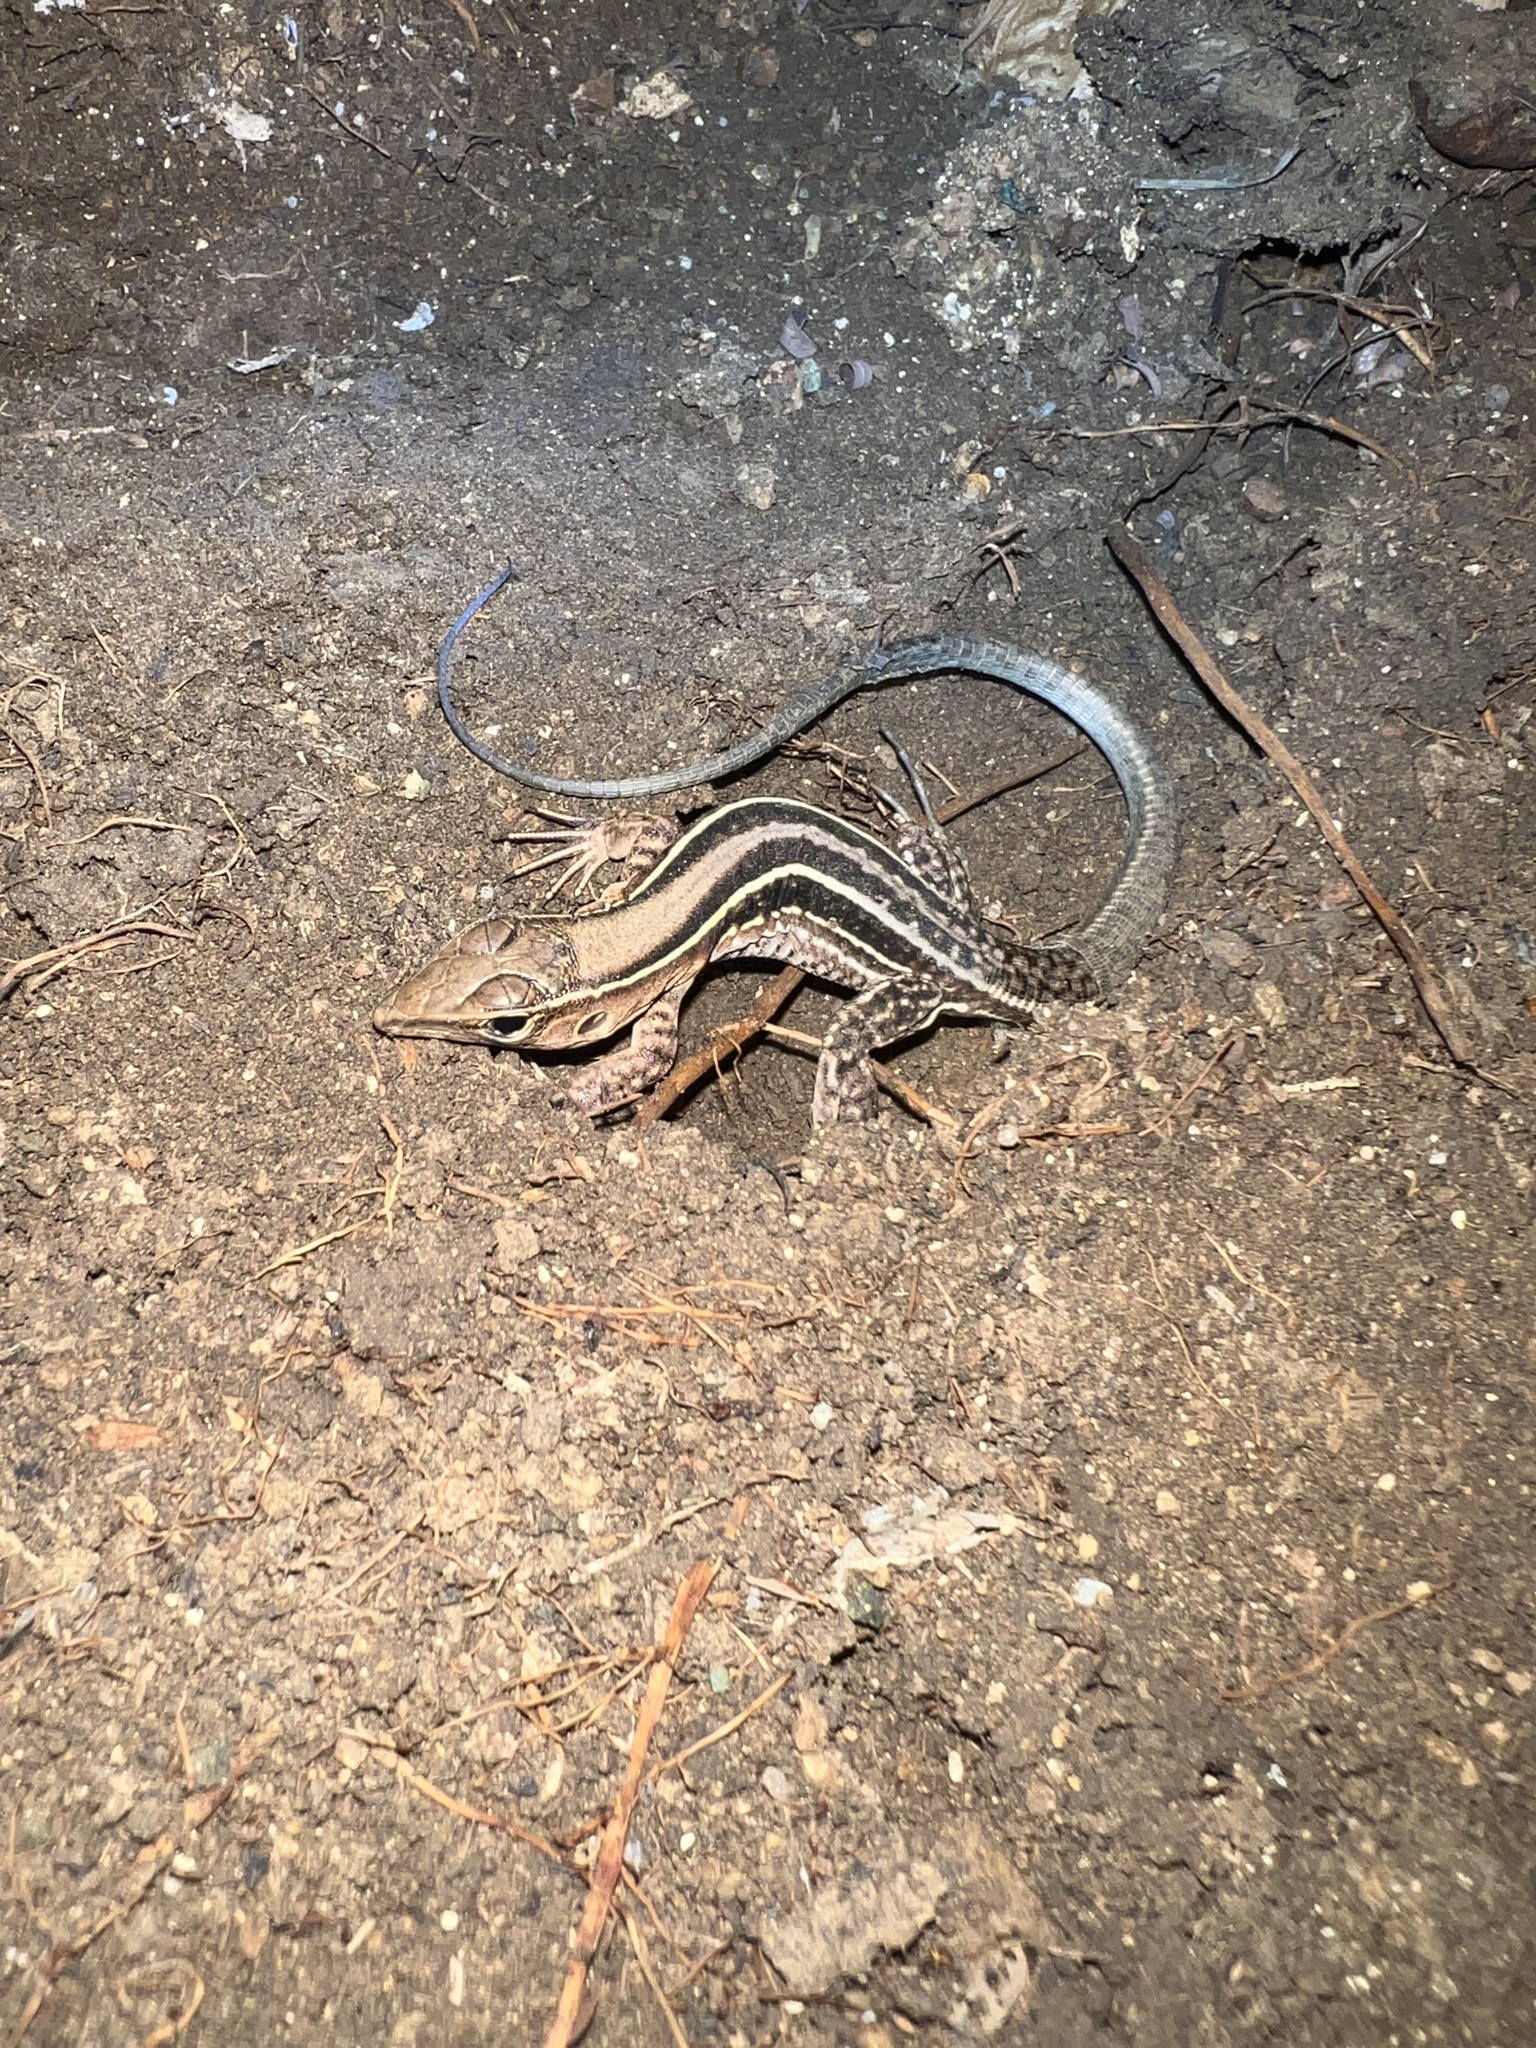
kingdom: Animalia
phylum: Chordata
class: Squamata
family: Teiidae
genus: Pholidoscelis
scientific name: Pholidoscelis exsul
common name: Common puerto rican ameiva
